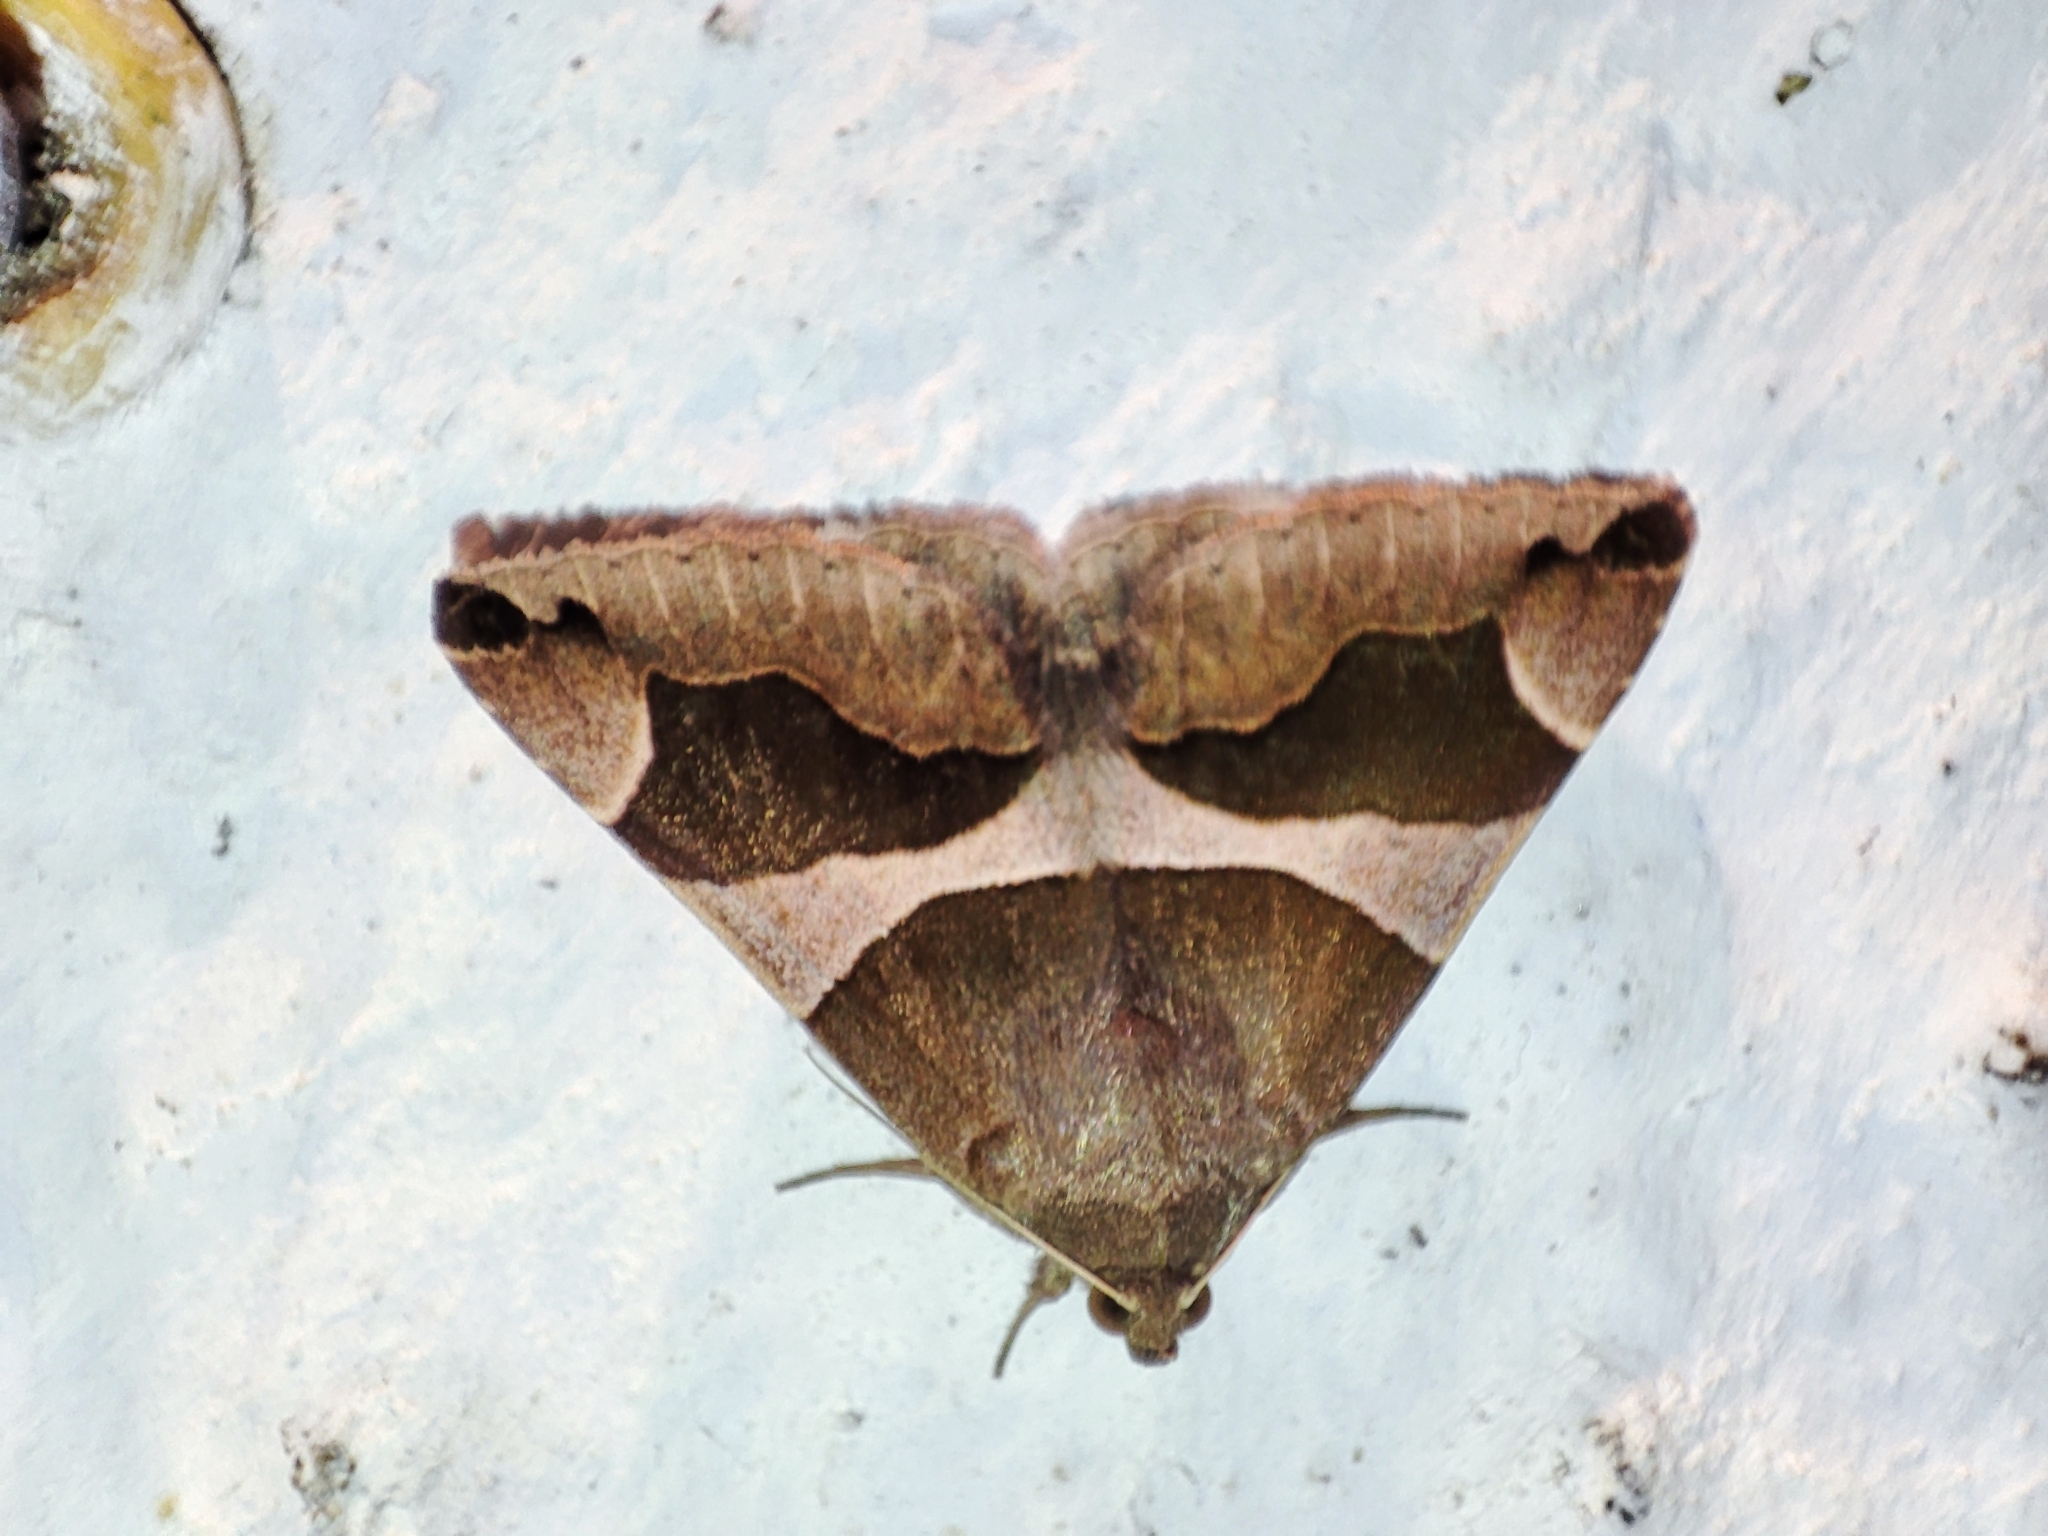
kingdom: Animalia
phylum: Arthropoda
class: Insecta
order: Lepidoptera
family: Erebidae
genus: Dysgonia
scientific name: Dysgonia algira
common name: Passenger
